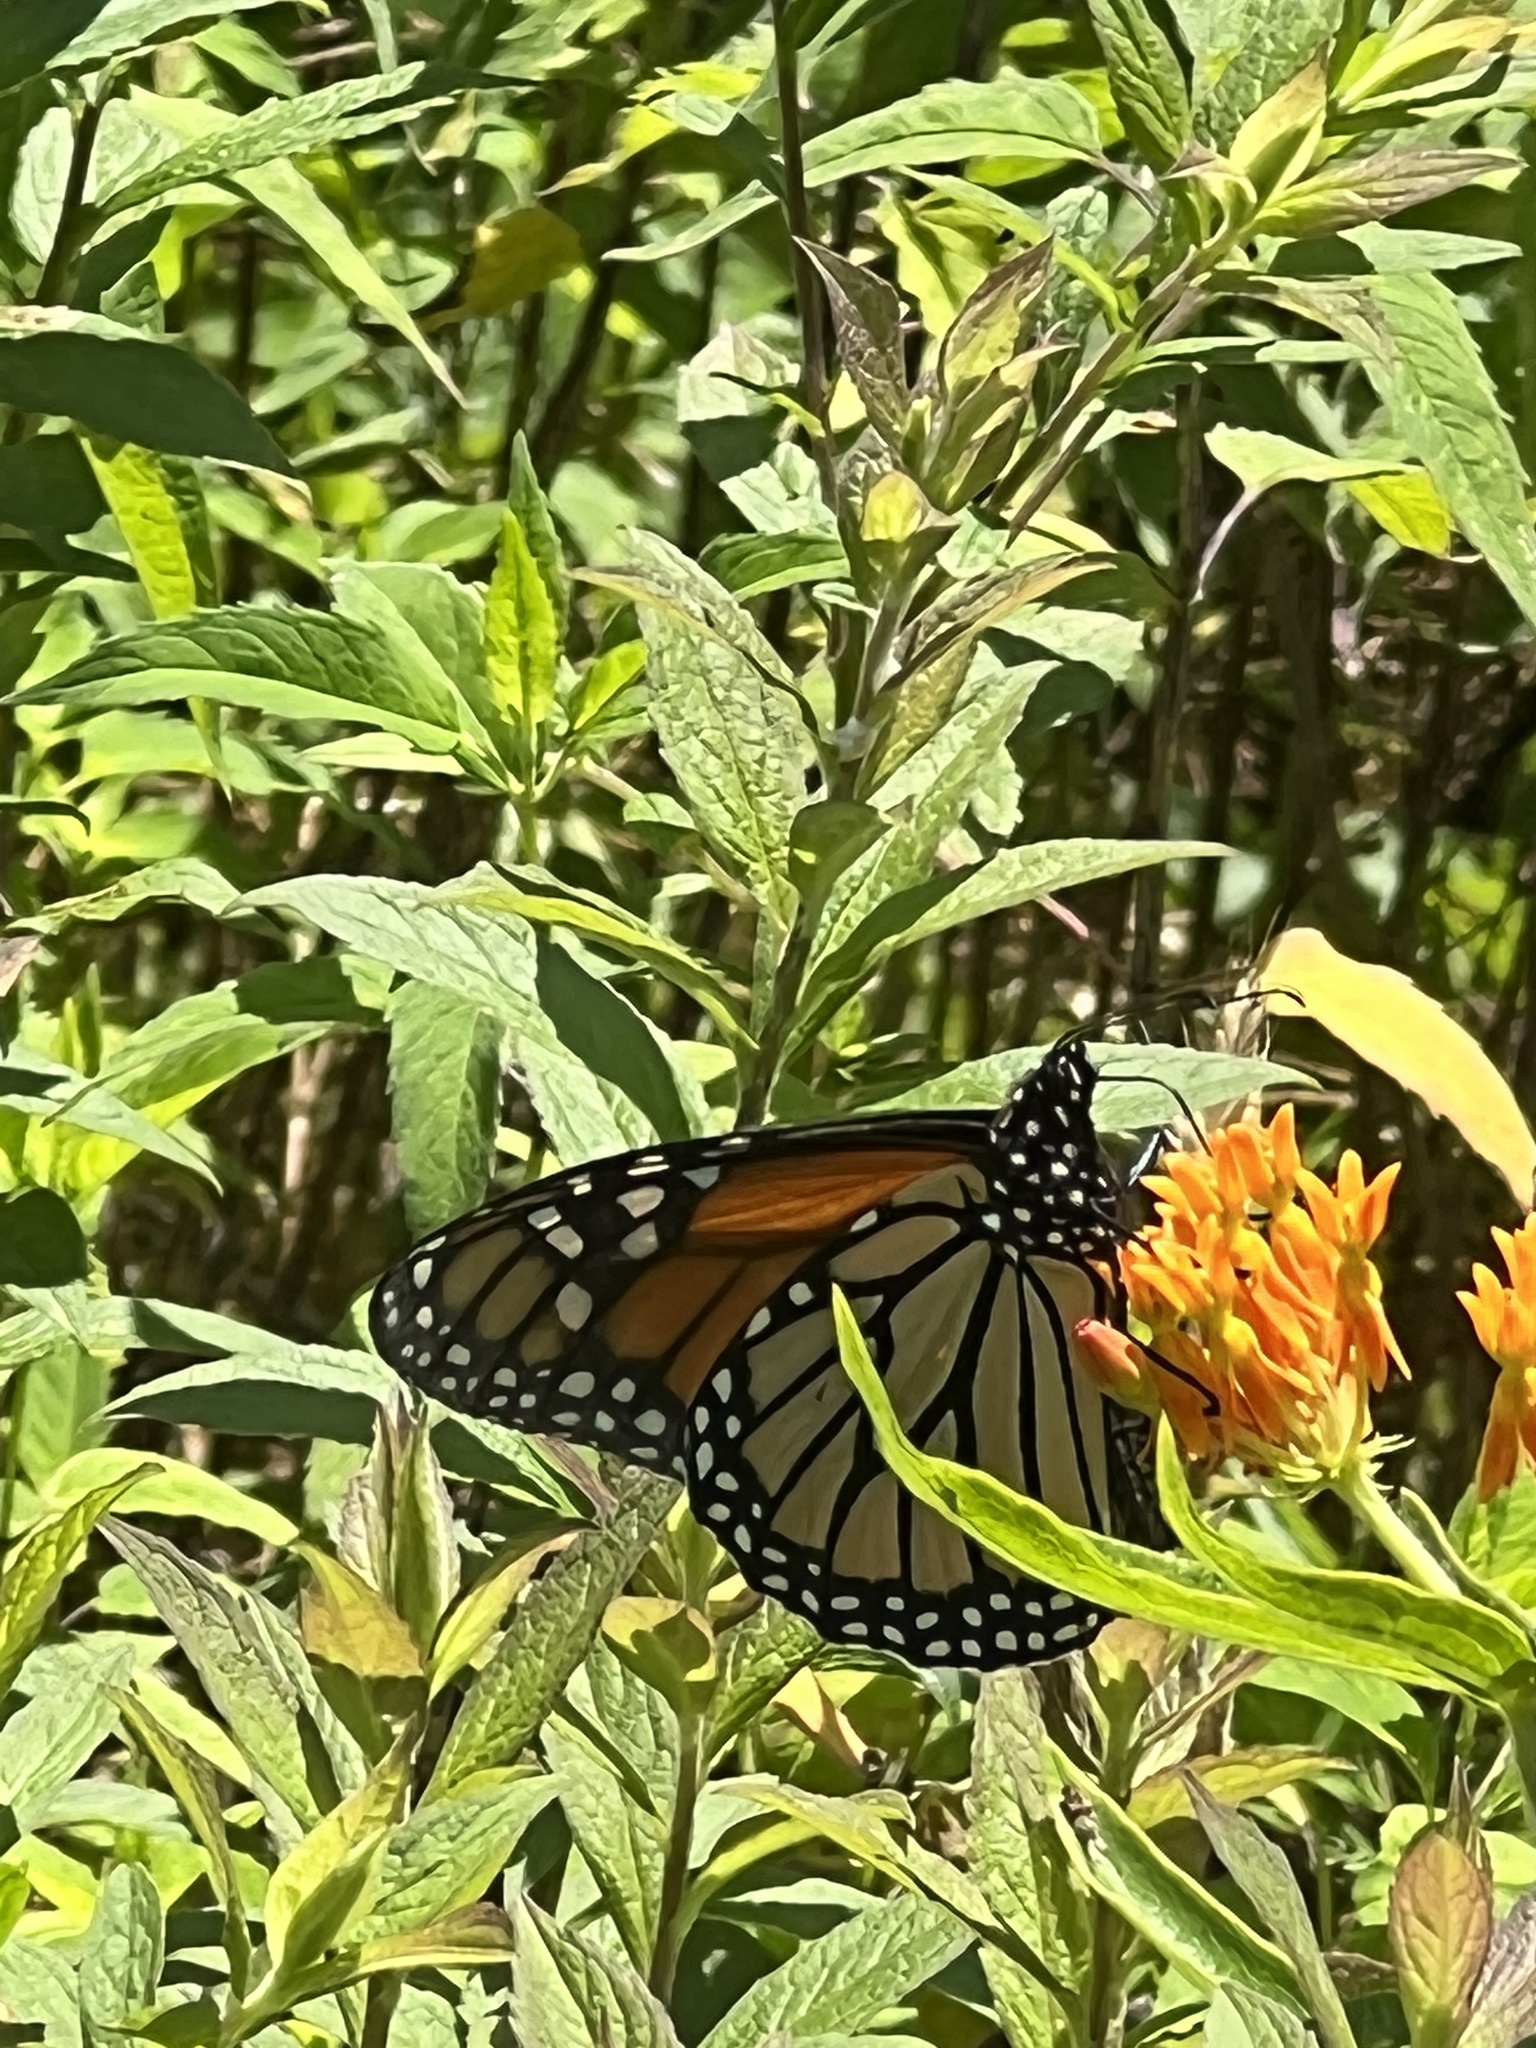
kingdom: Animalia
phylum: Arthropoda
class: Insecta
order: Lepidoptera
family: Nymphalidae
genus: Danaus
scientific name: Danaus plexippus
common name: Monarch
